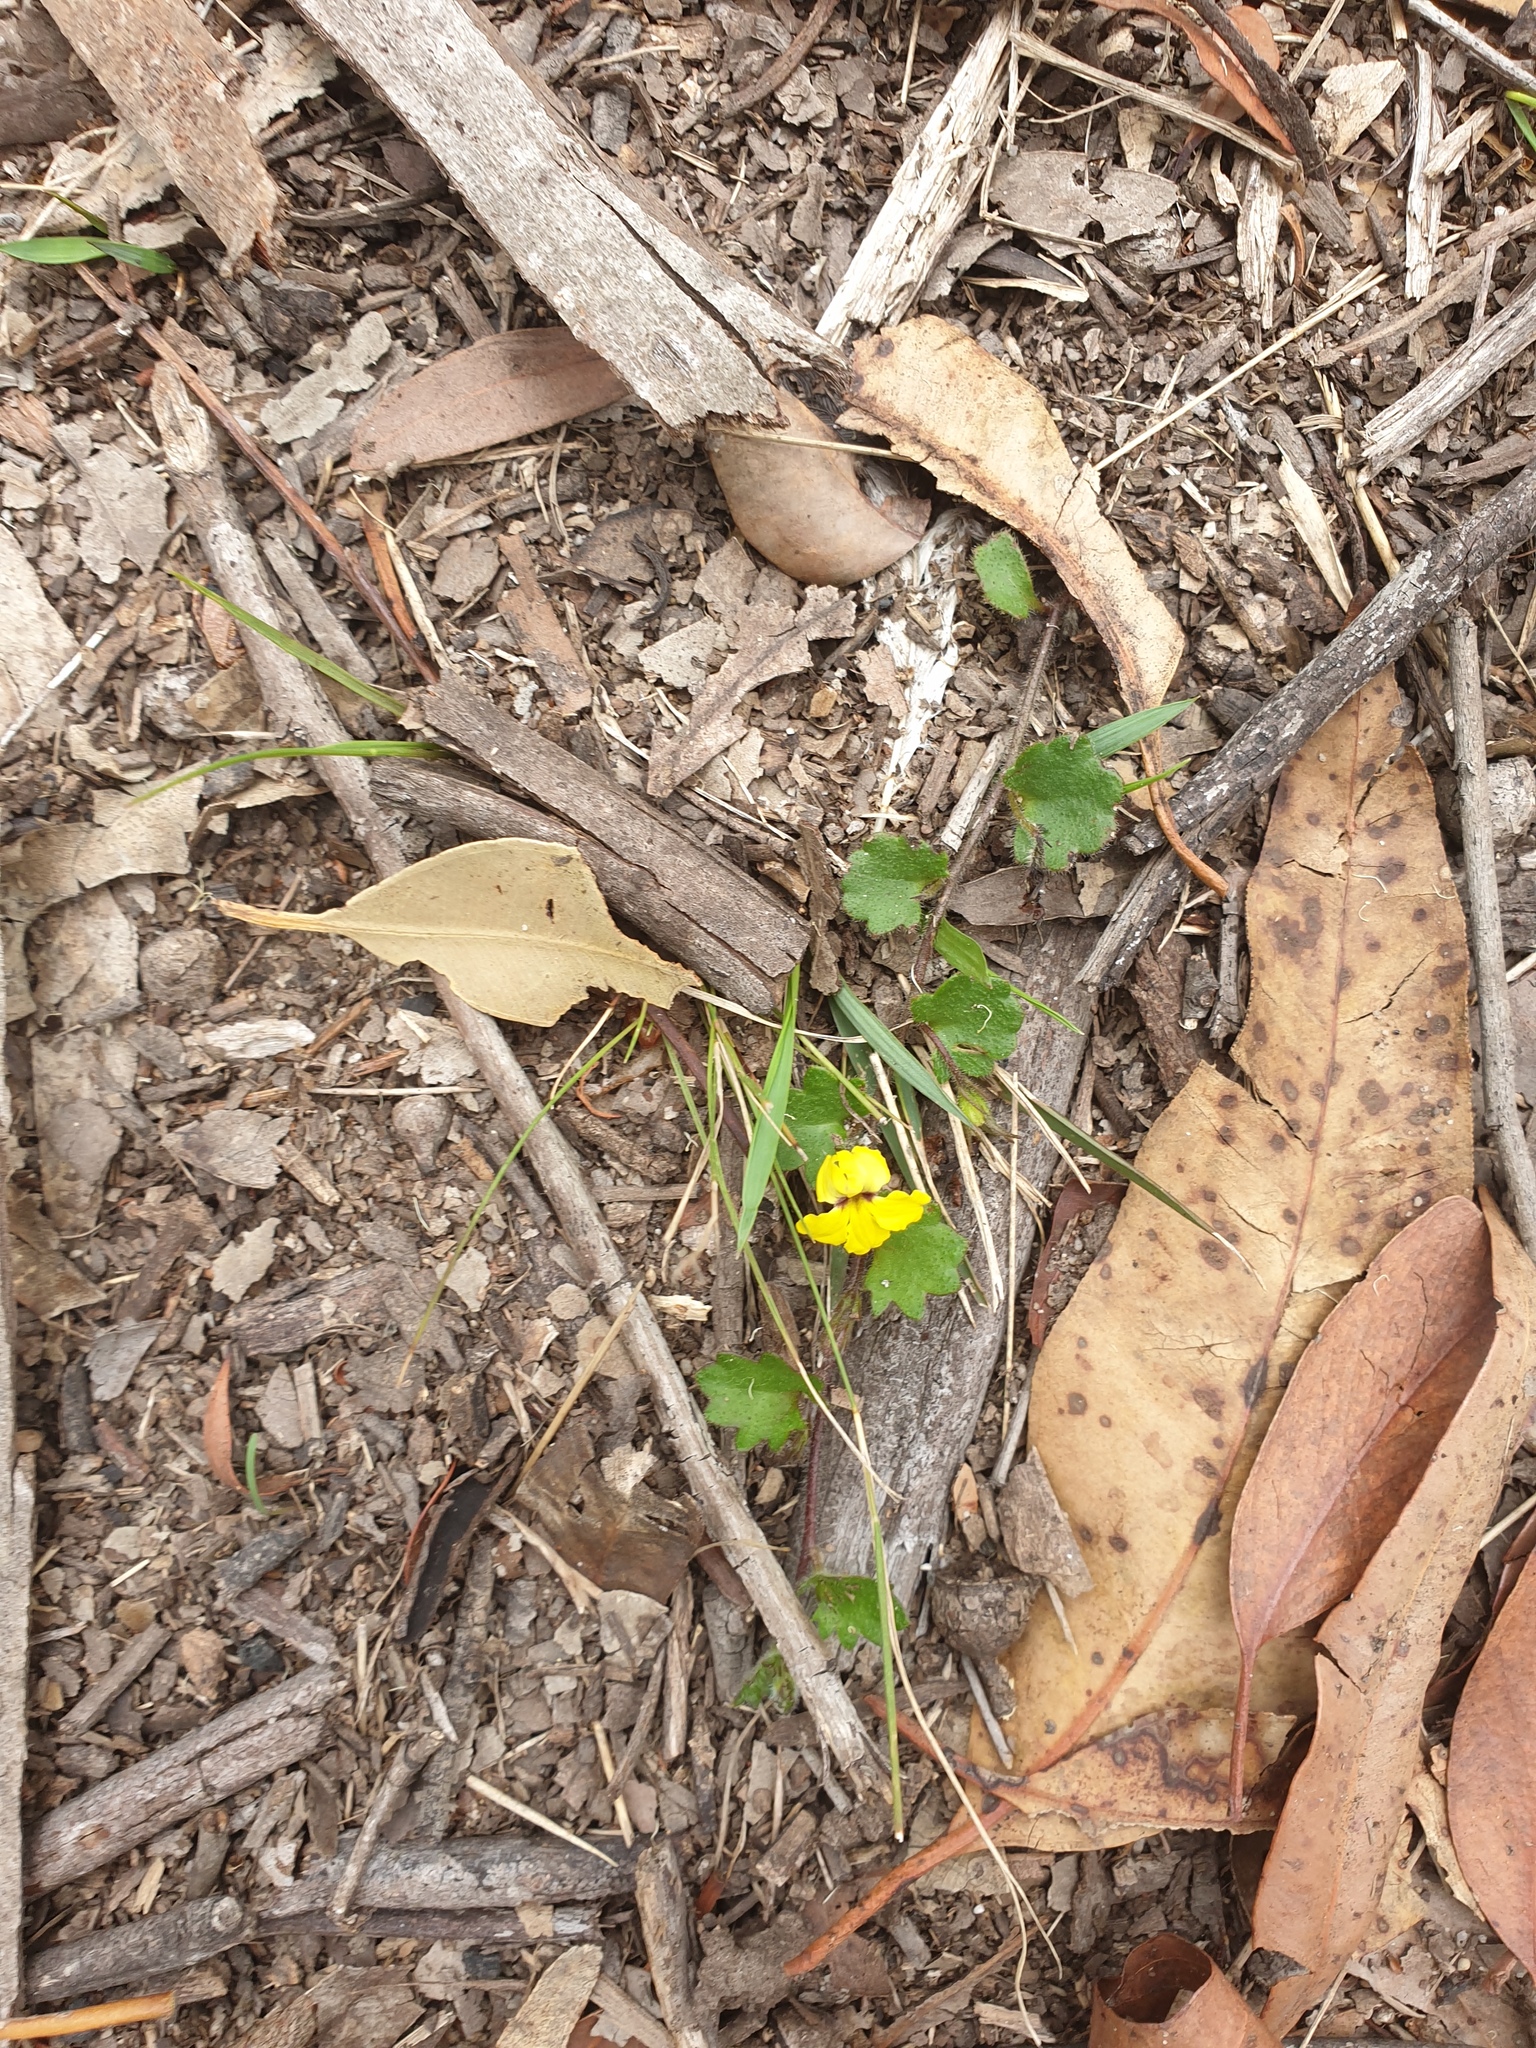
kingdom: Plantae
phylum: Tracheophyta
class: Magnoliopsida
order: Asterales
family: Goodeniaceae
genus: Goodenia
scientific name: Goodenia rotundifolia
